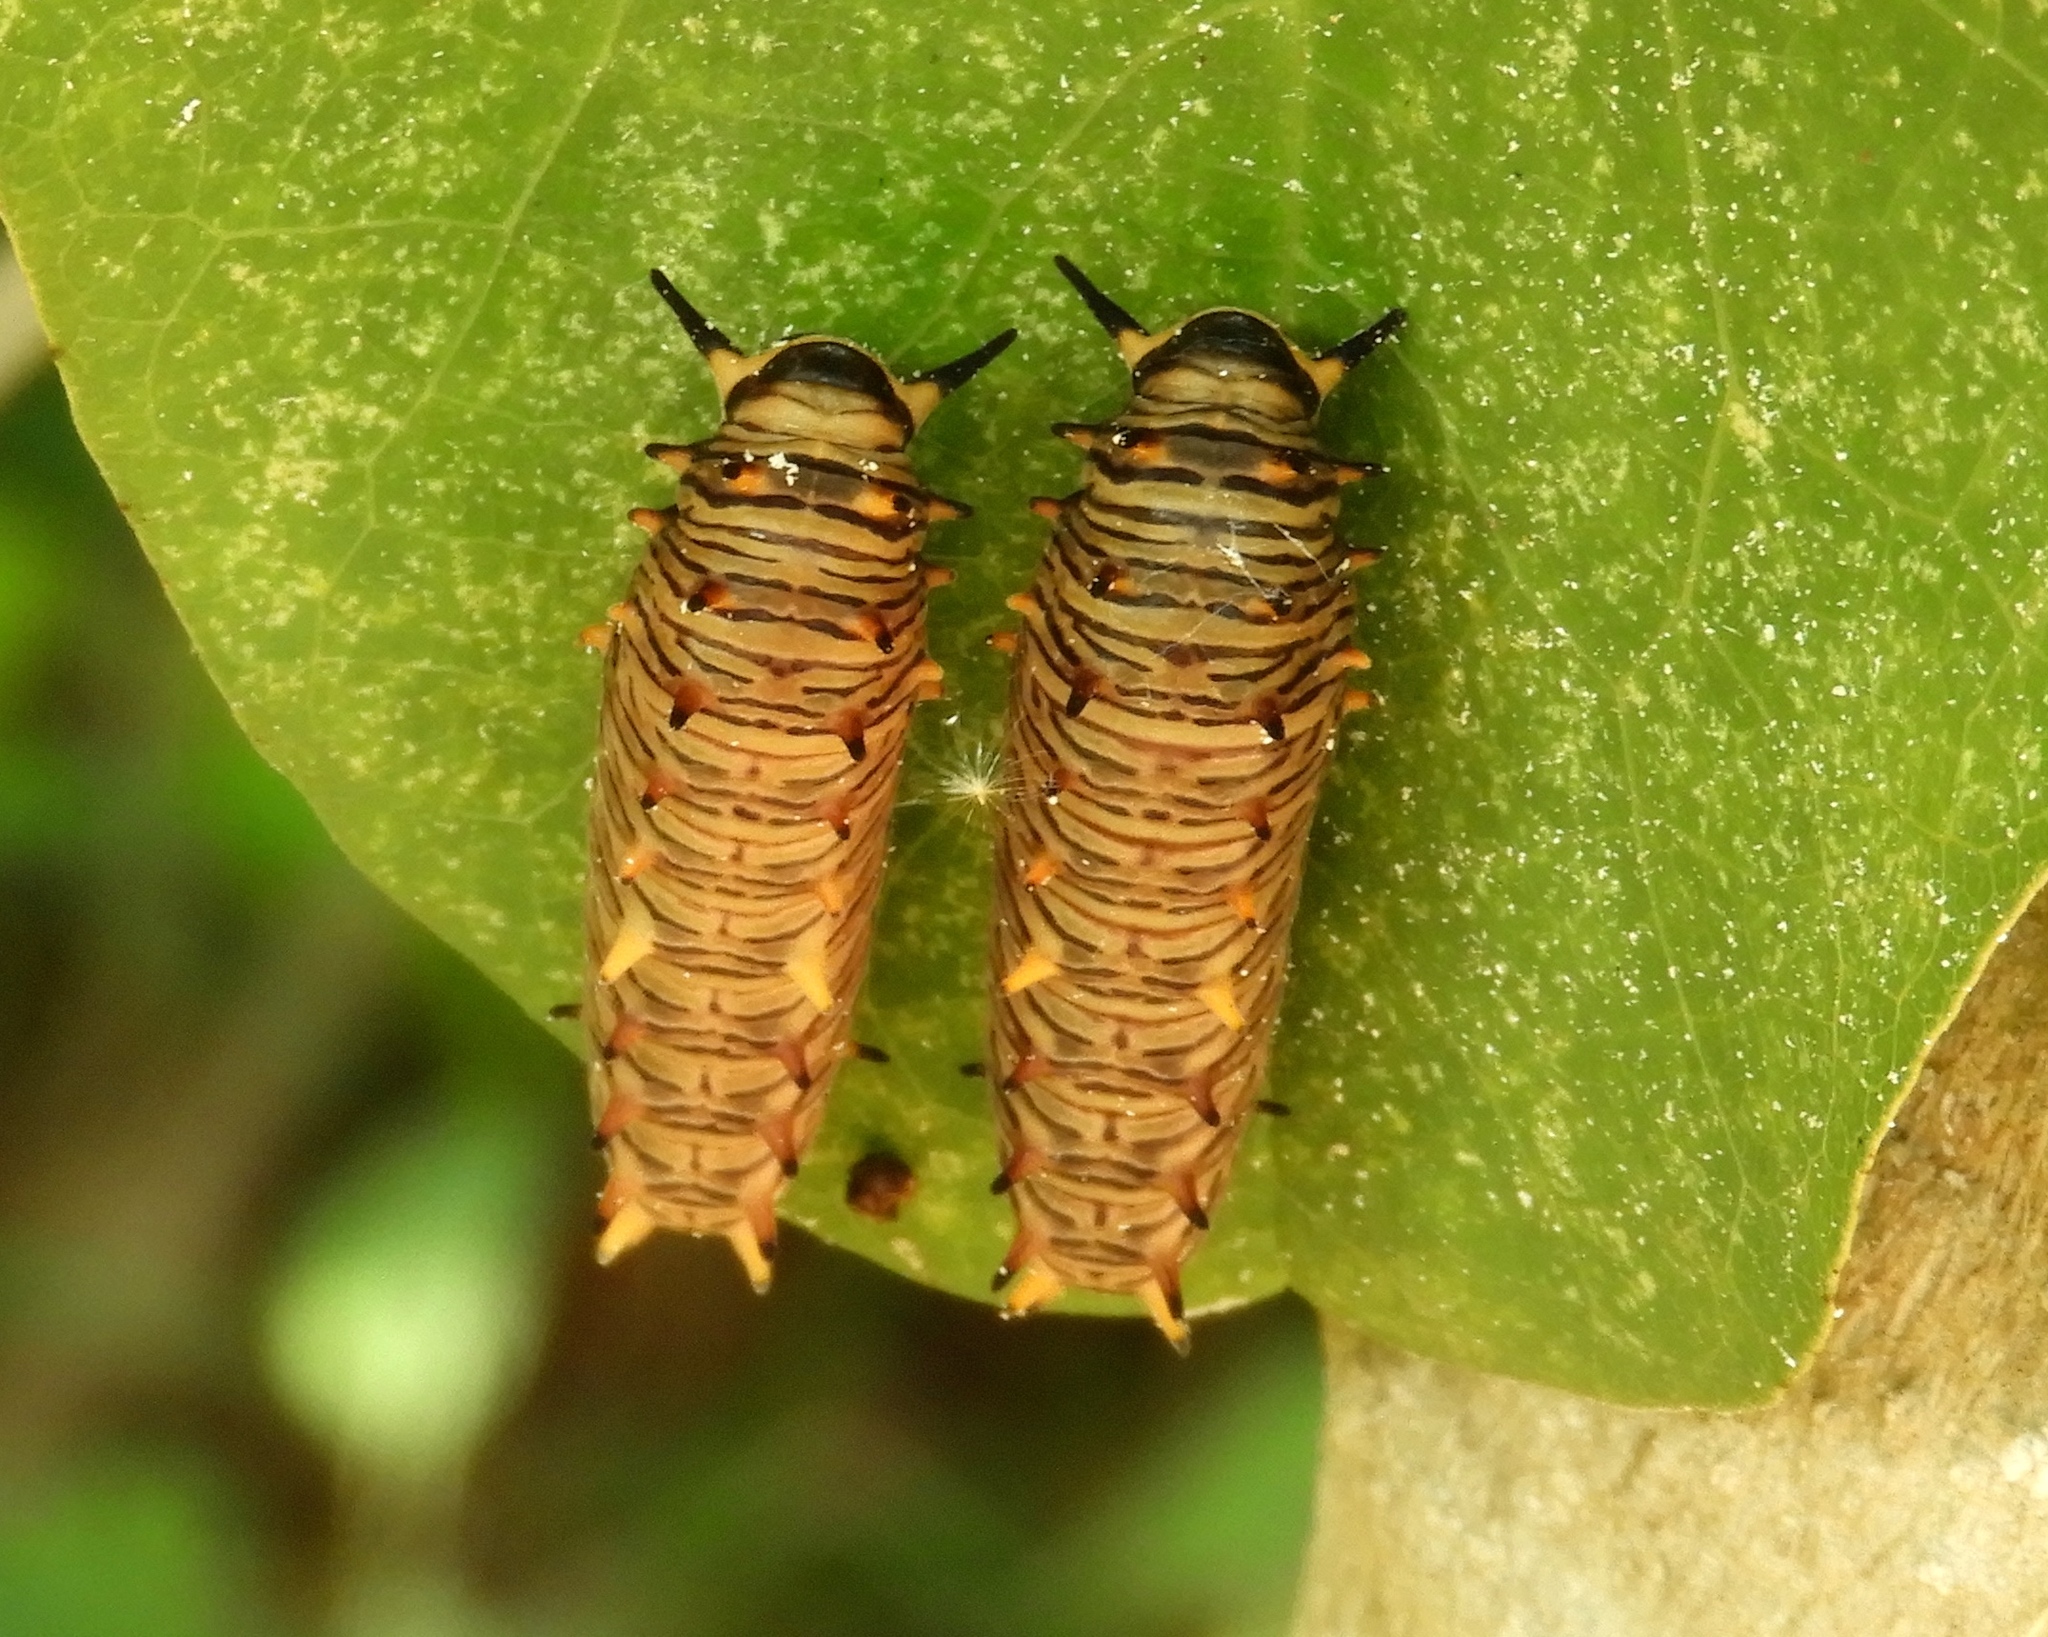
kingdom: Animalia
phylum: Arthropoda
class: Insecta
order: Lepidoptera
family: Papilionidae
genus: Battus
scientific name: Battus polydamas
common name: Polydamas swallowtail
